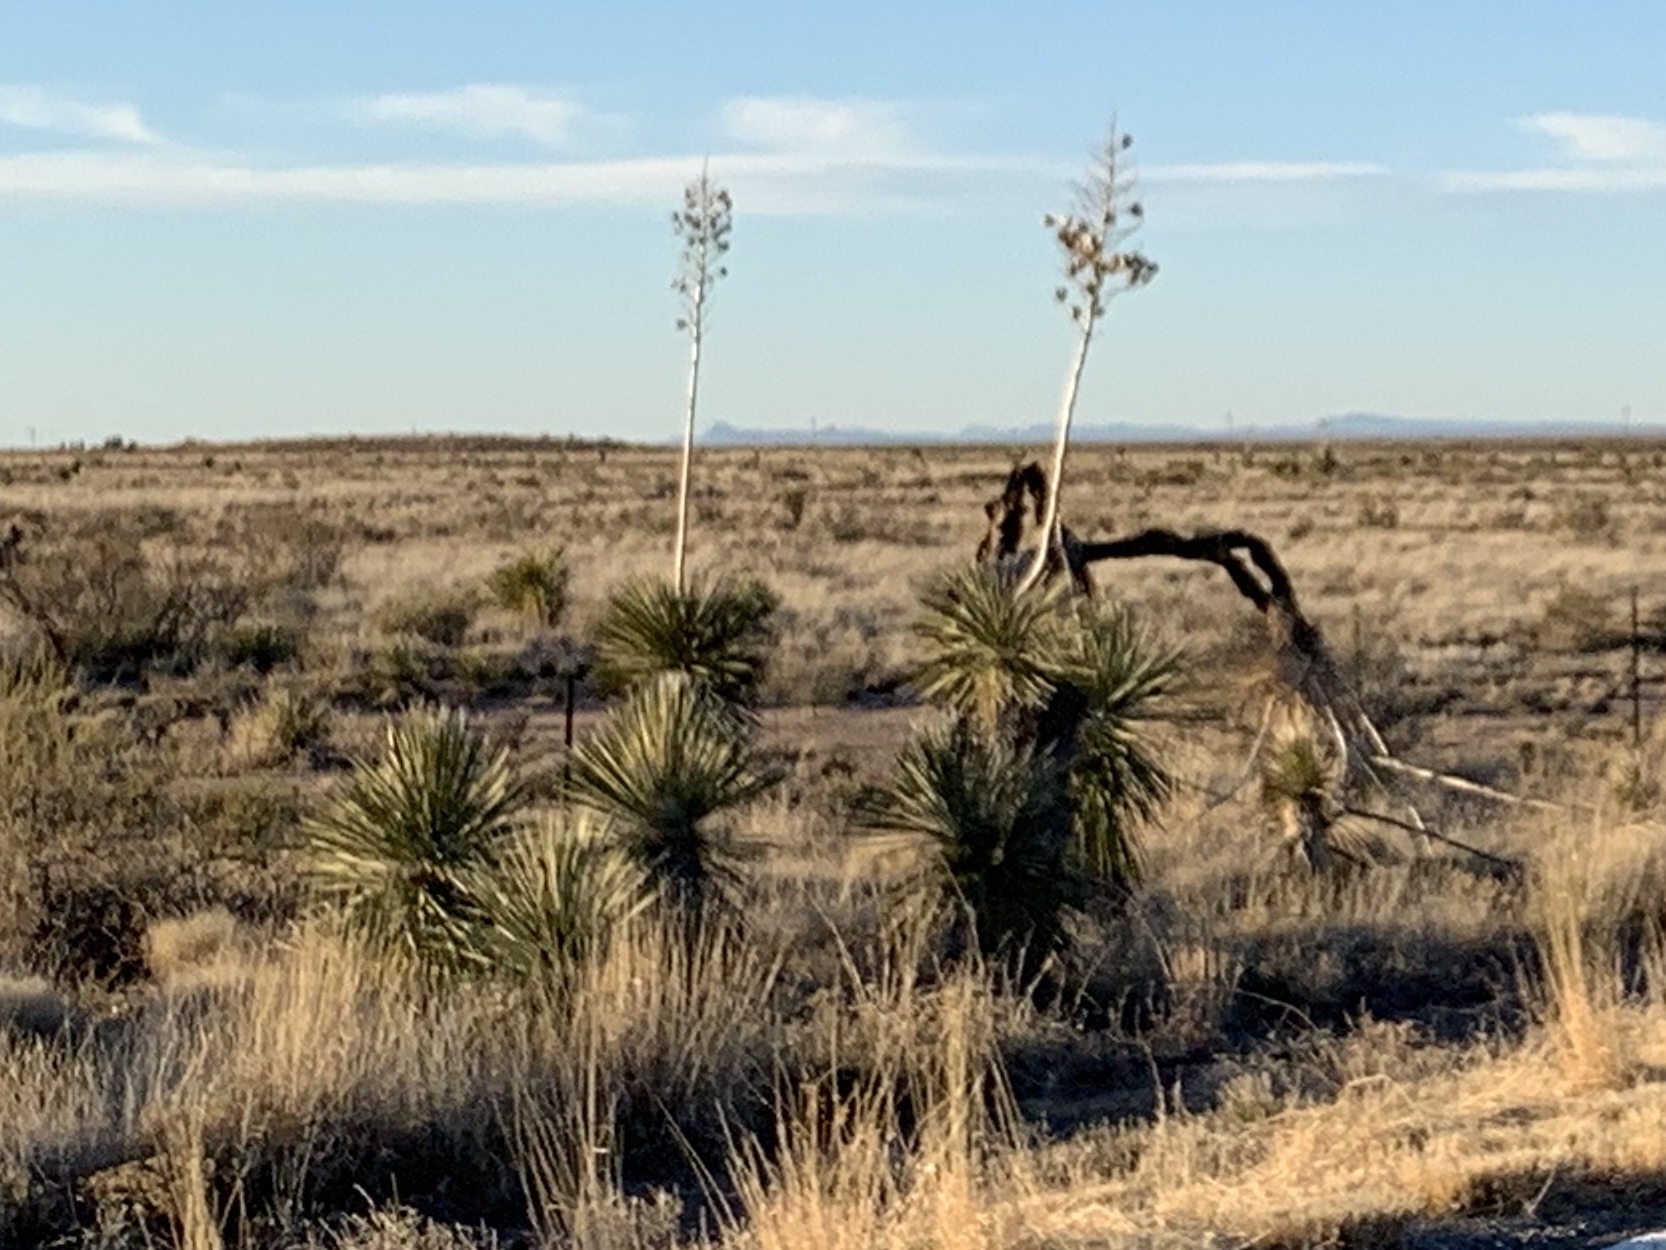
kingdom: Plantae
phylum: Tracheophyta
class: Liliopsida
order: Asparagales
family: Asparagaceae
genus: Yucca
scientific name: Yucca elata
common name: Palmella
